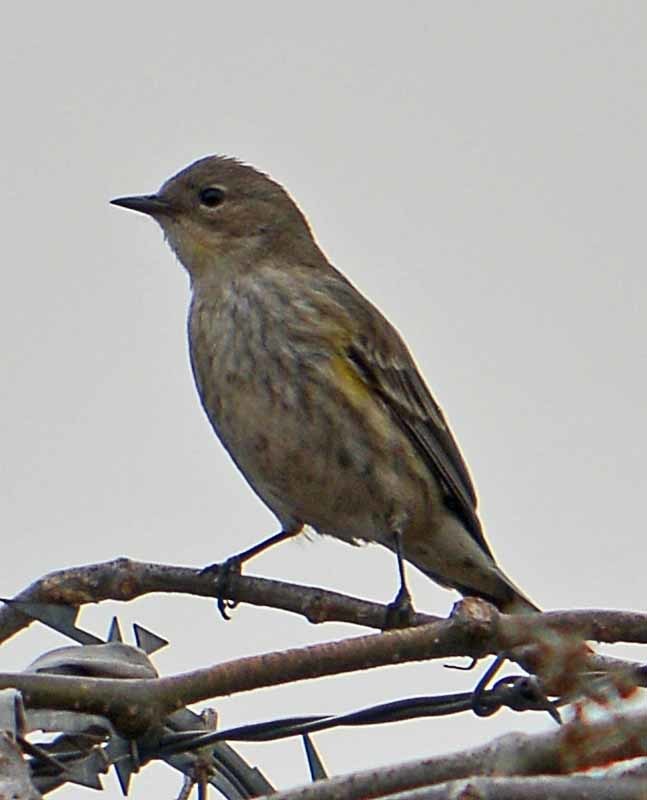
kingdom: Animalia
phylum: Chordata
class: Aves
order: Passeriformes
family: Parulidae
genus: Setophaga
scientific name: Setophaga coronata
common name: Myrtle warbler
